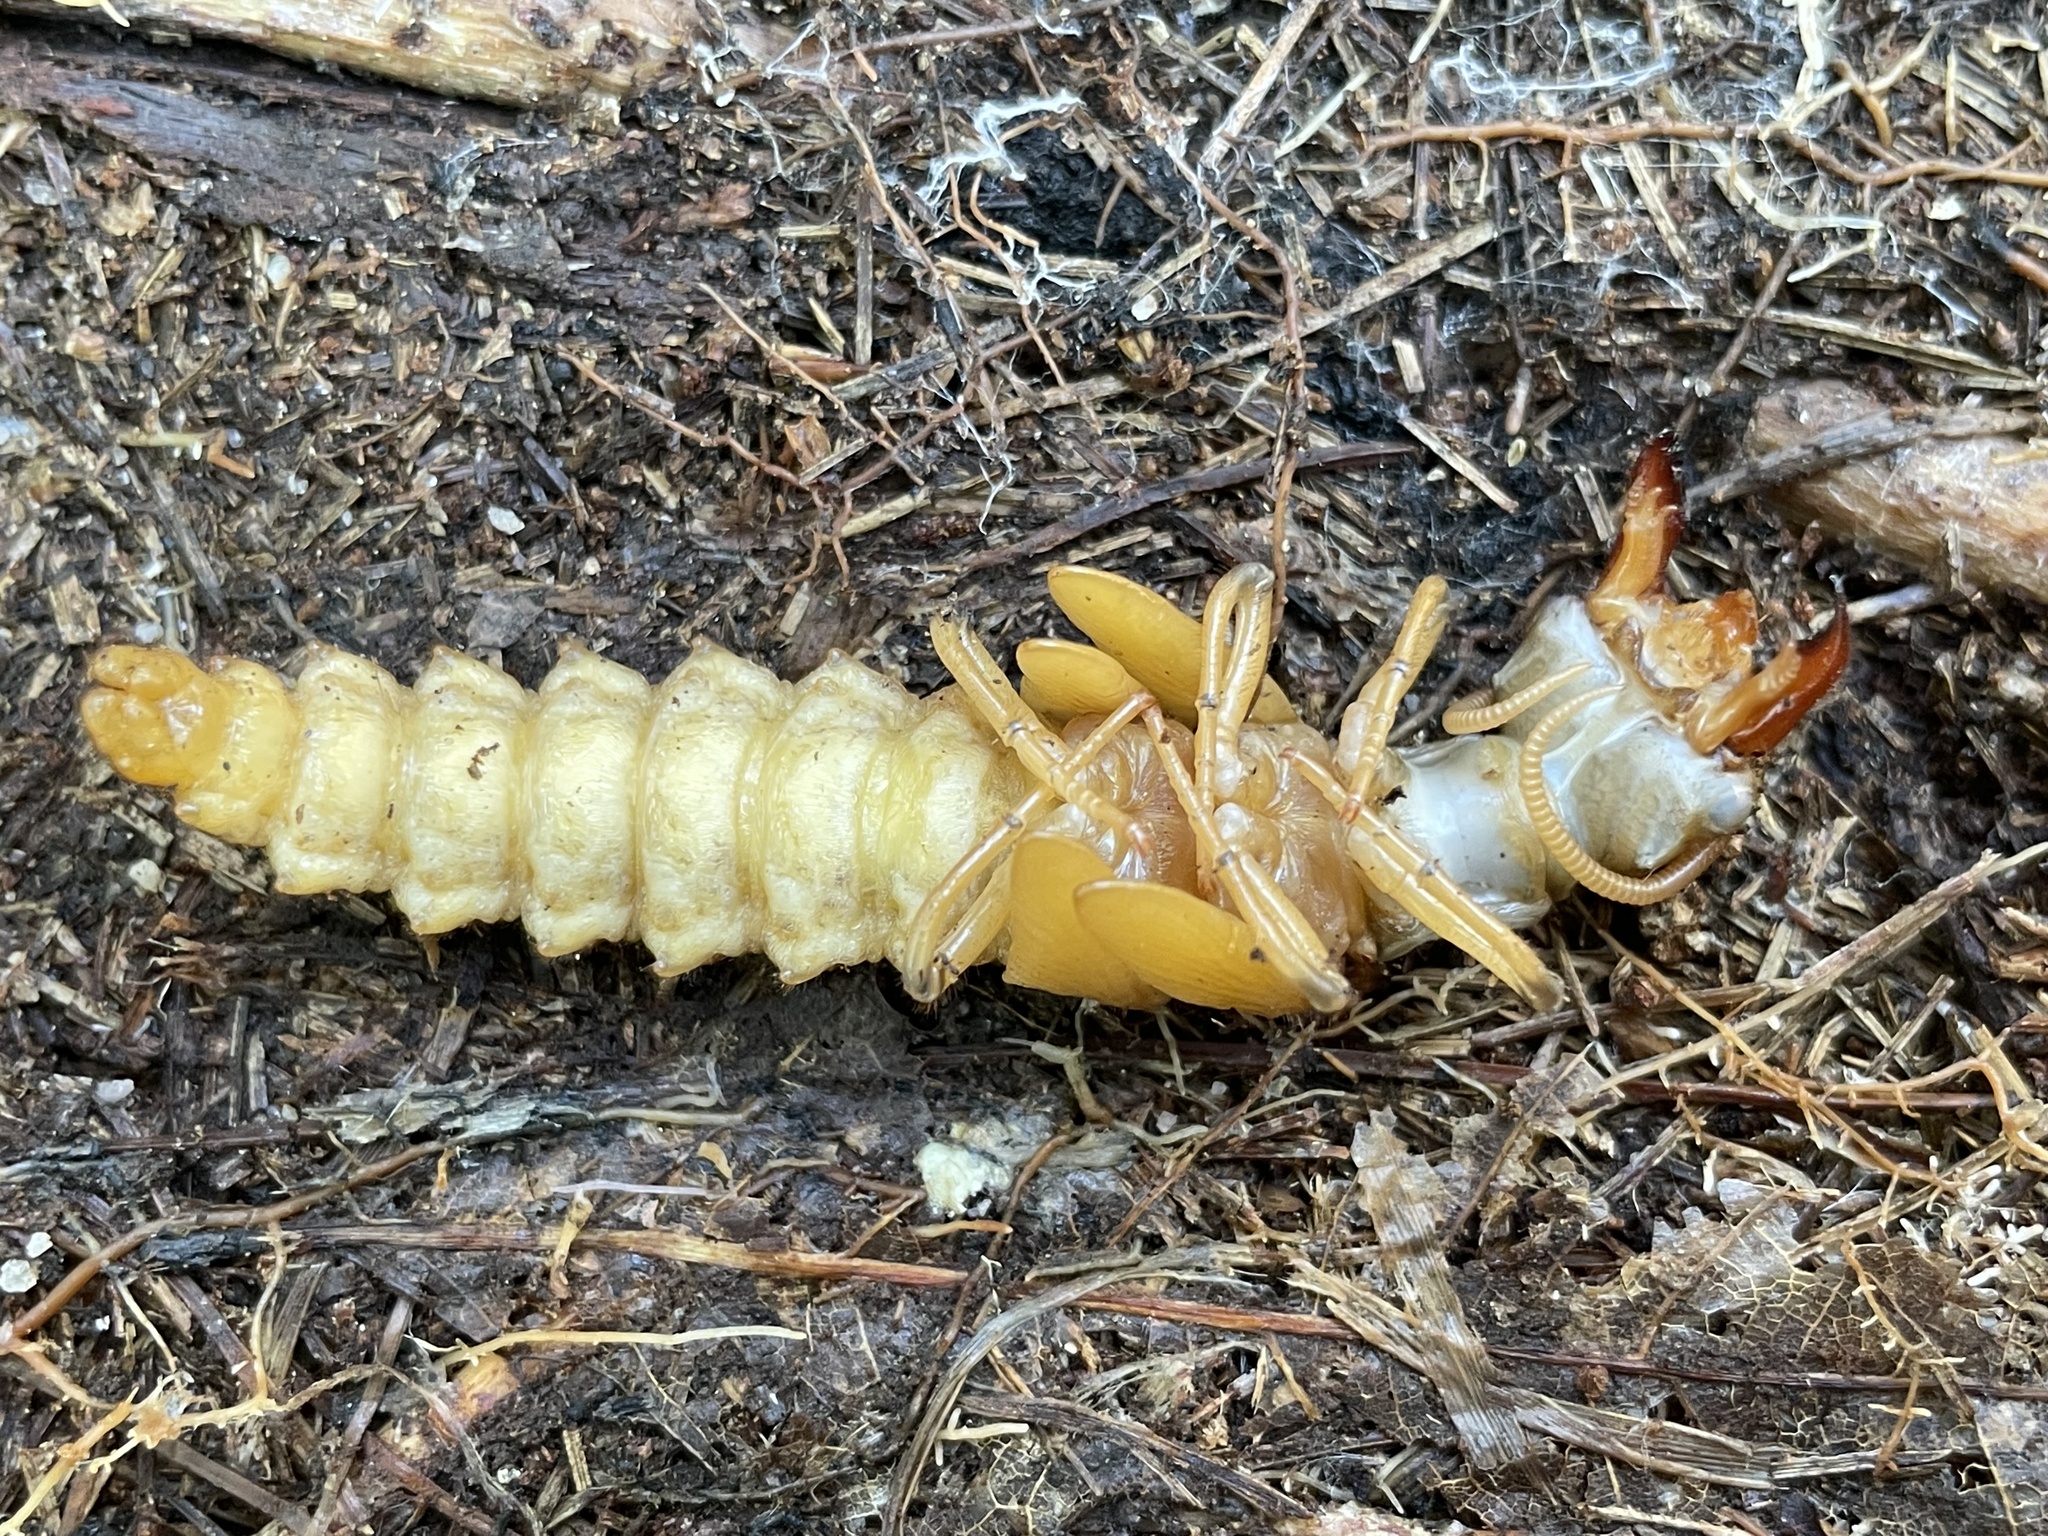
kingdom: Animalia
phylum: Arthropoda
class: Insecta
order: Megaloptera
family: Corydalidae
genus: Corydalus
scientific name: Corydalus cornutus
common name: Dobsonfly
